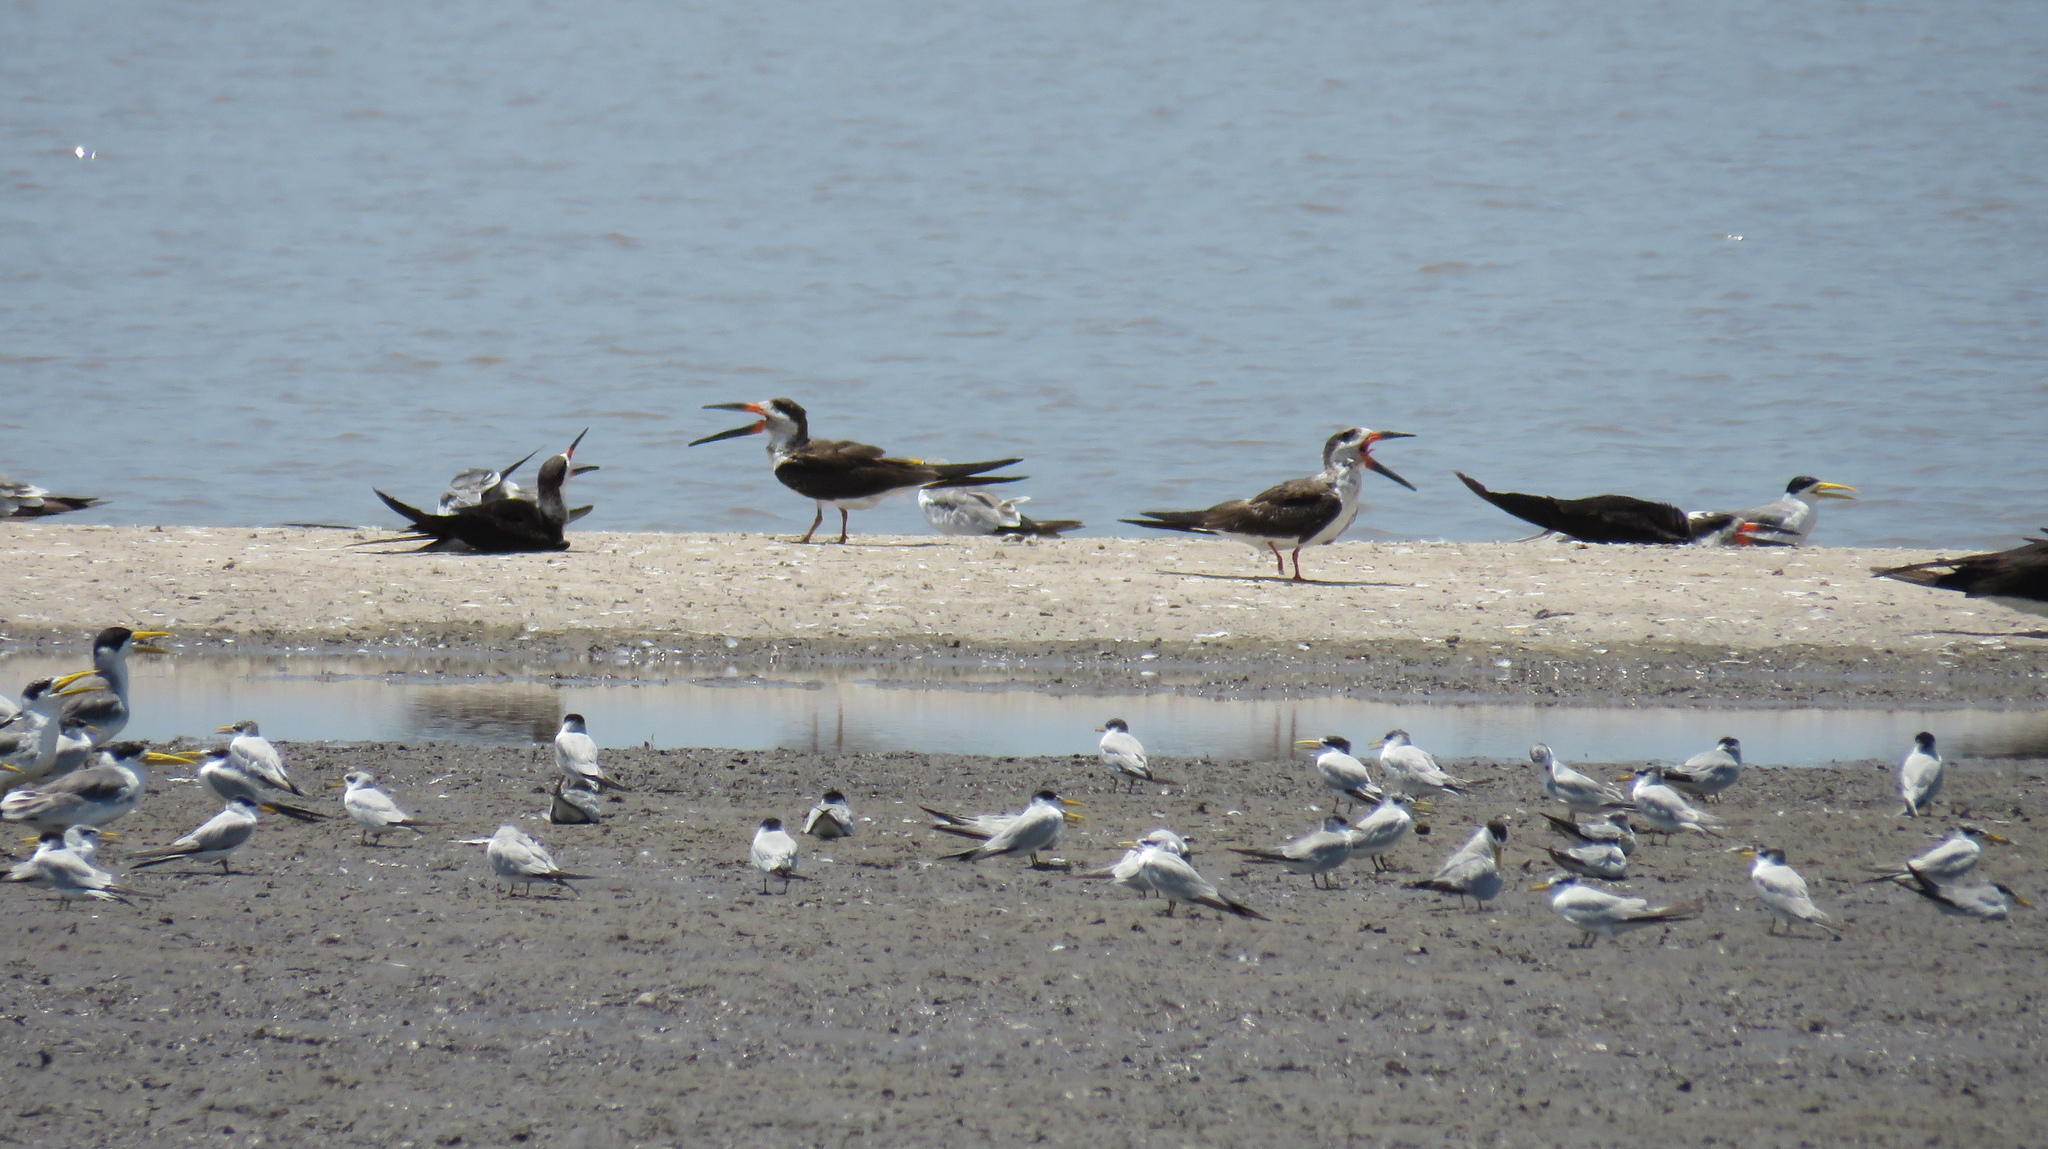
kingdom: Animalia
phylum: Chordata
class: Aves
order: Charadriiformes
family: Laridae
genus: Rynchops
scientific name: Rynchops niger
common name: Black skimmer
